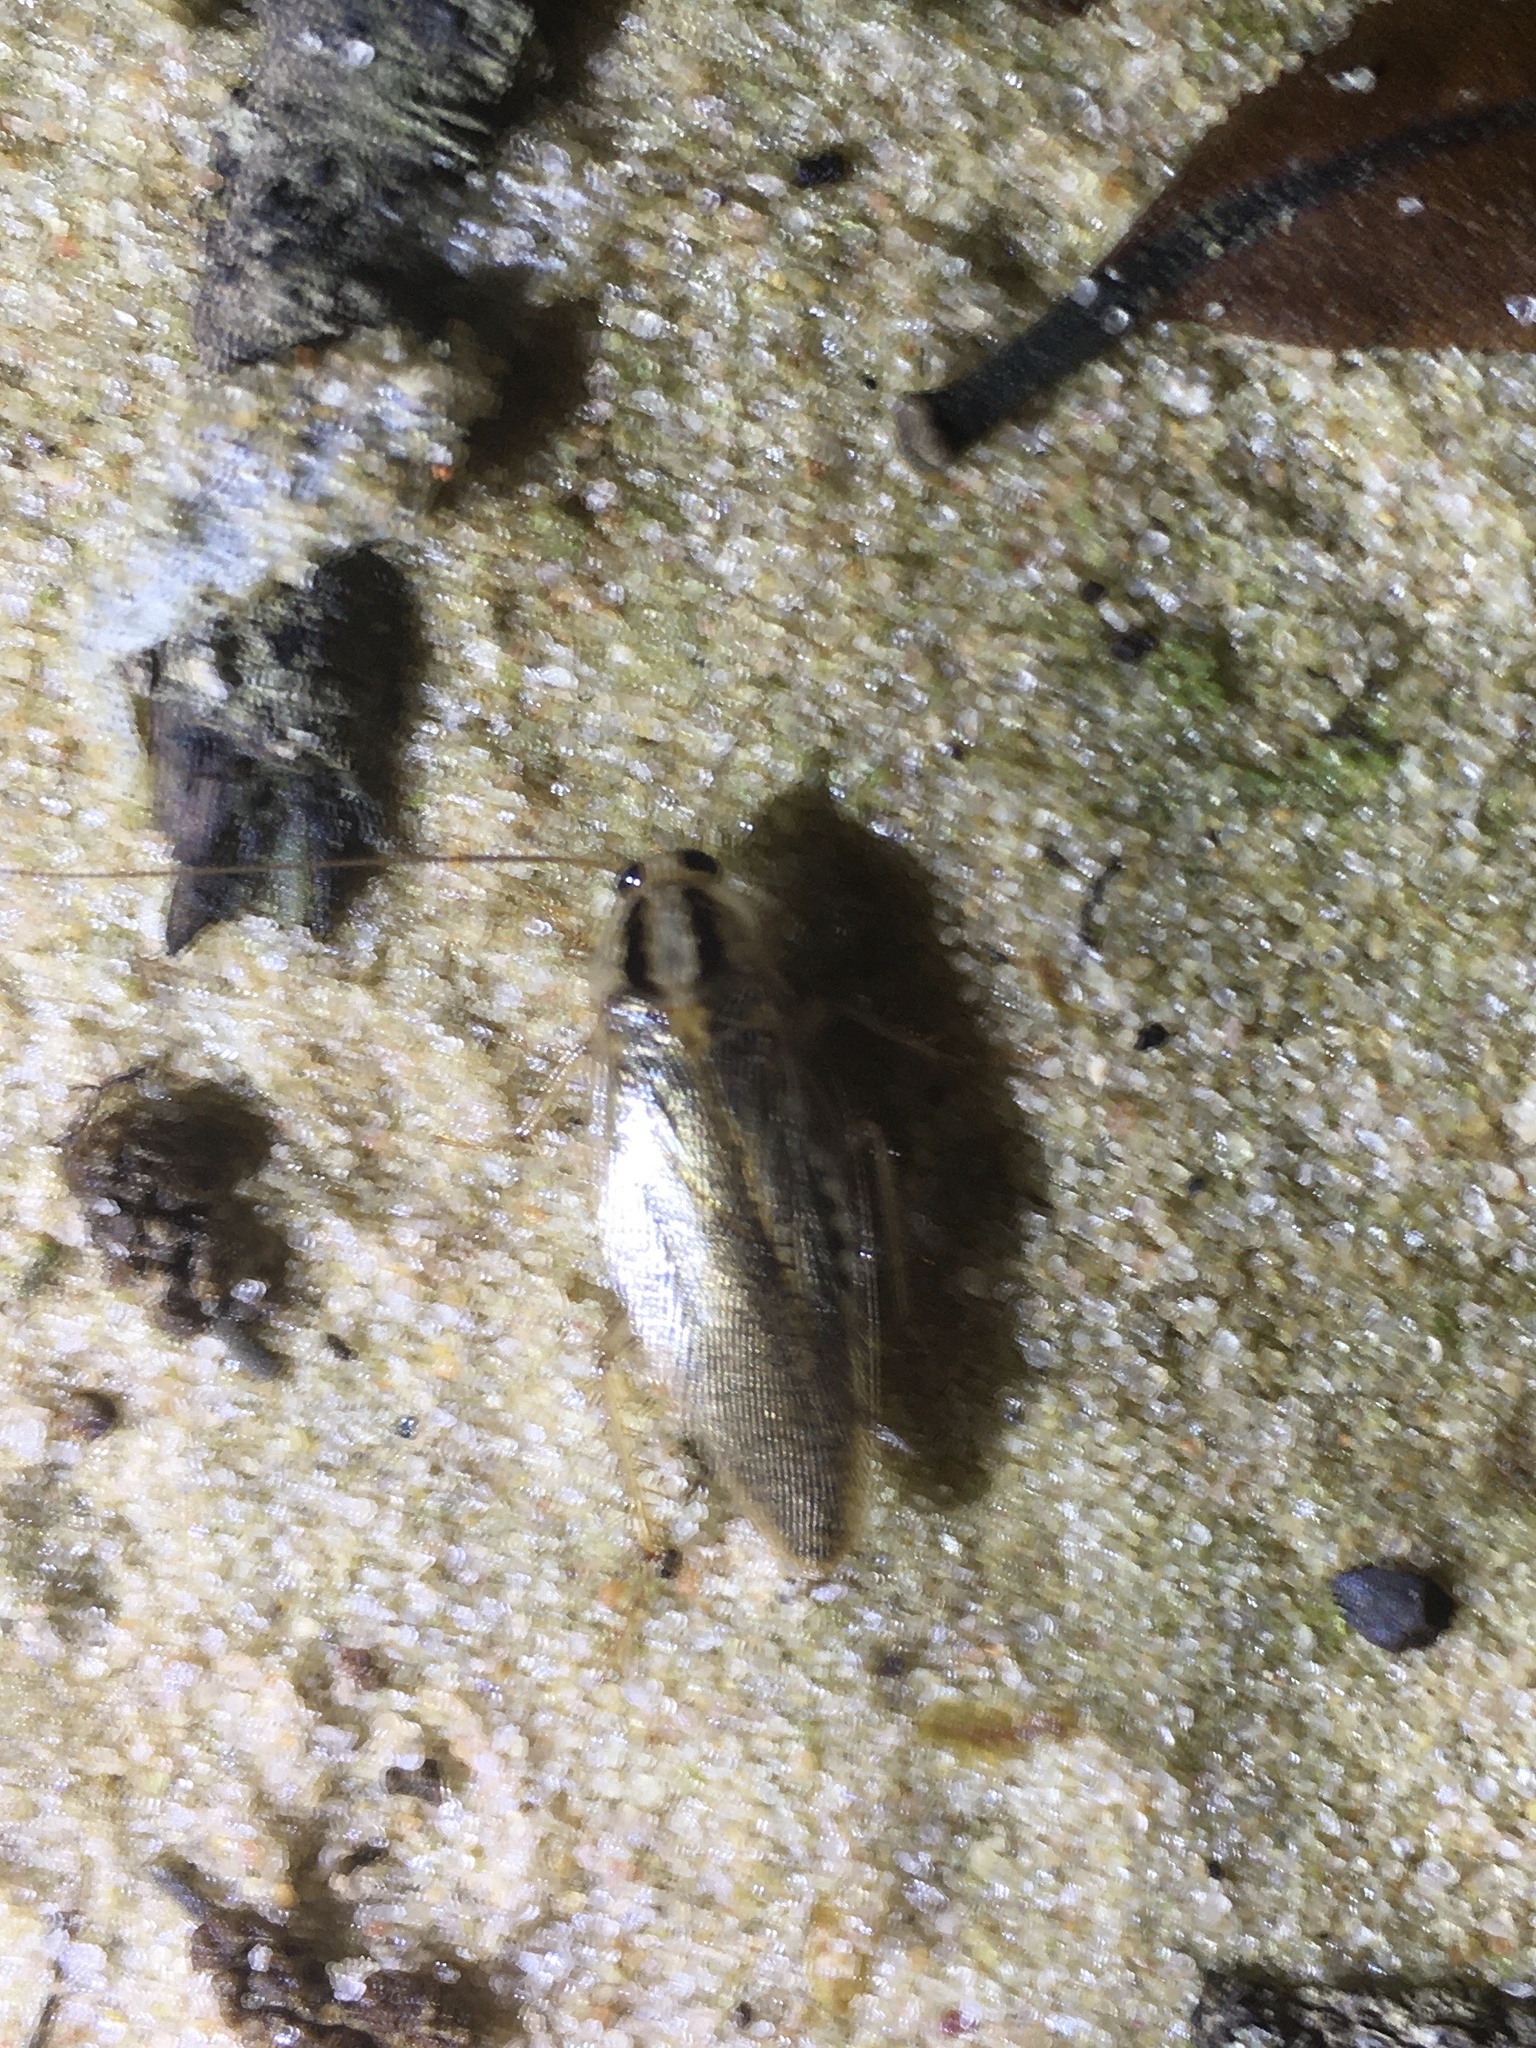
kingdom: Animalia
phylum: Arthropoda
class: Insecta
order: Blattodea
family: Ectobiidae
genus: Blattella
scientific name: Blattella asahinai
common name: Asian cockroach
